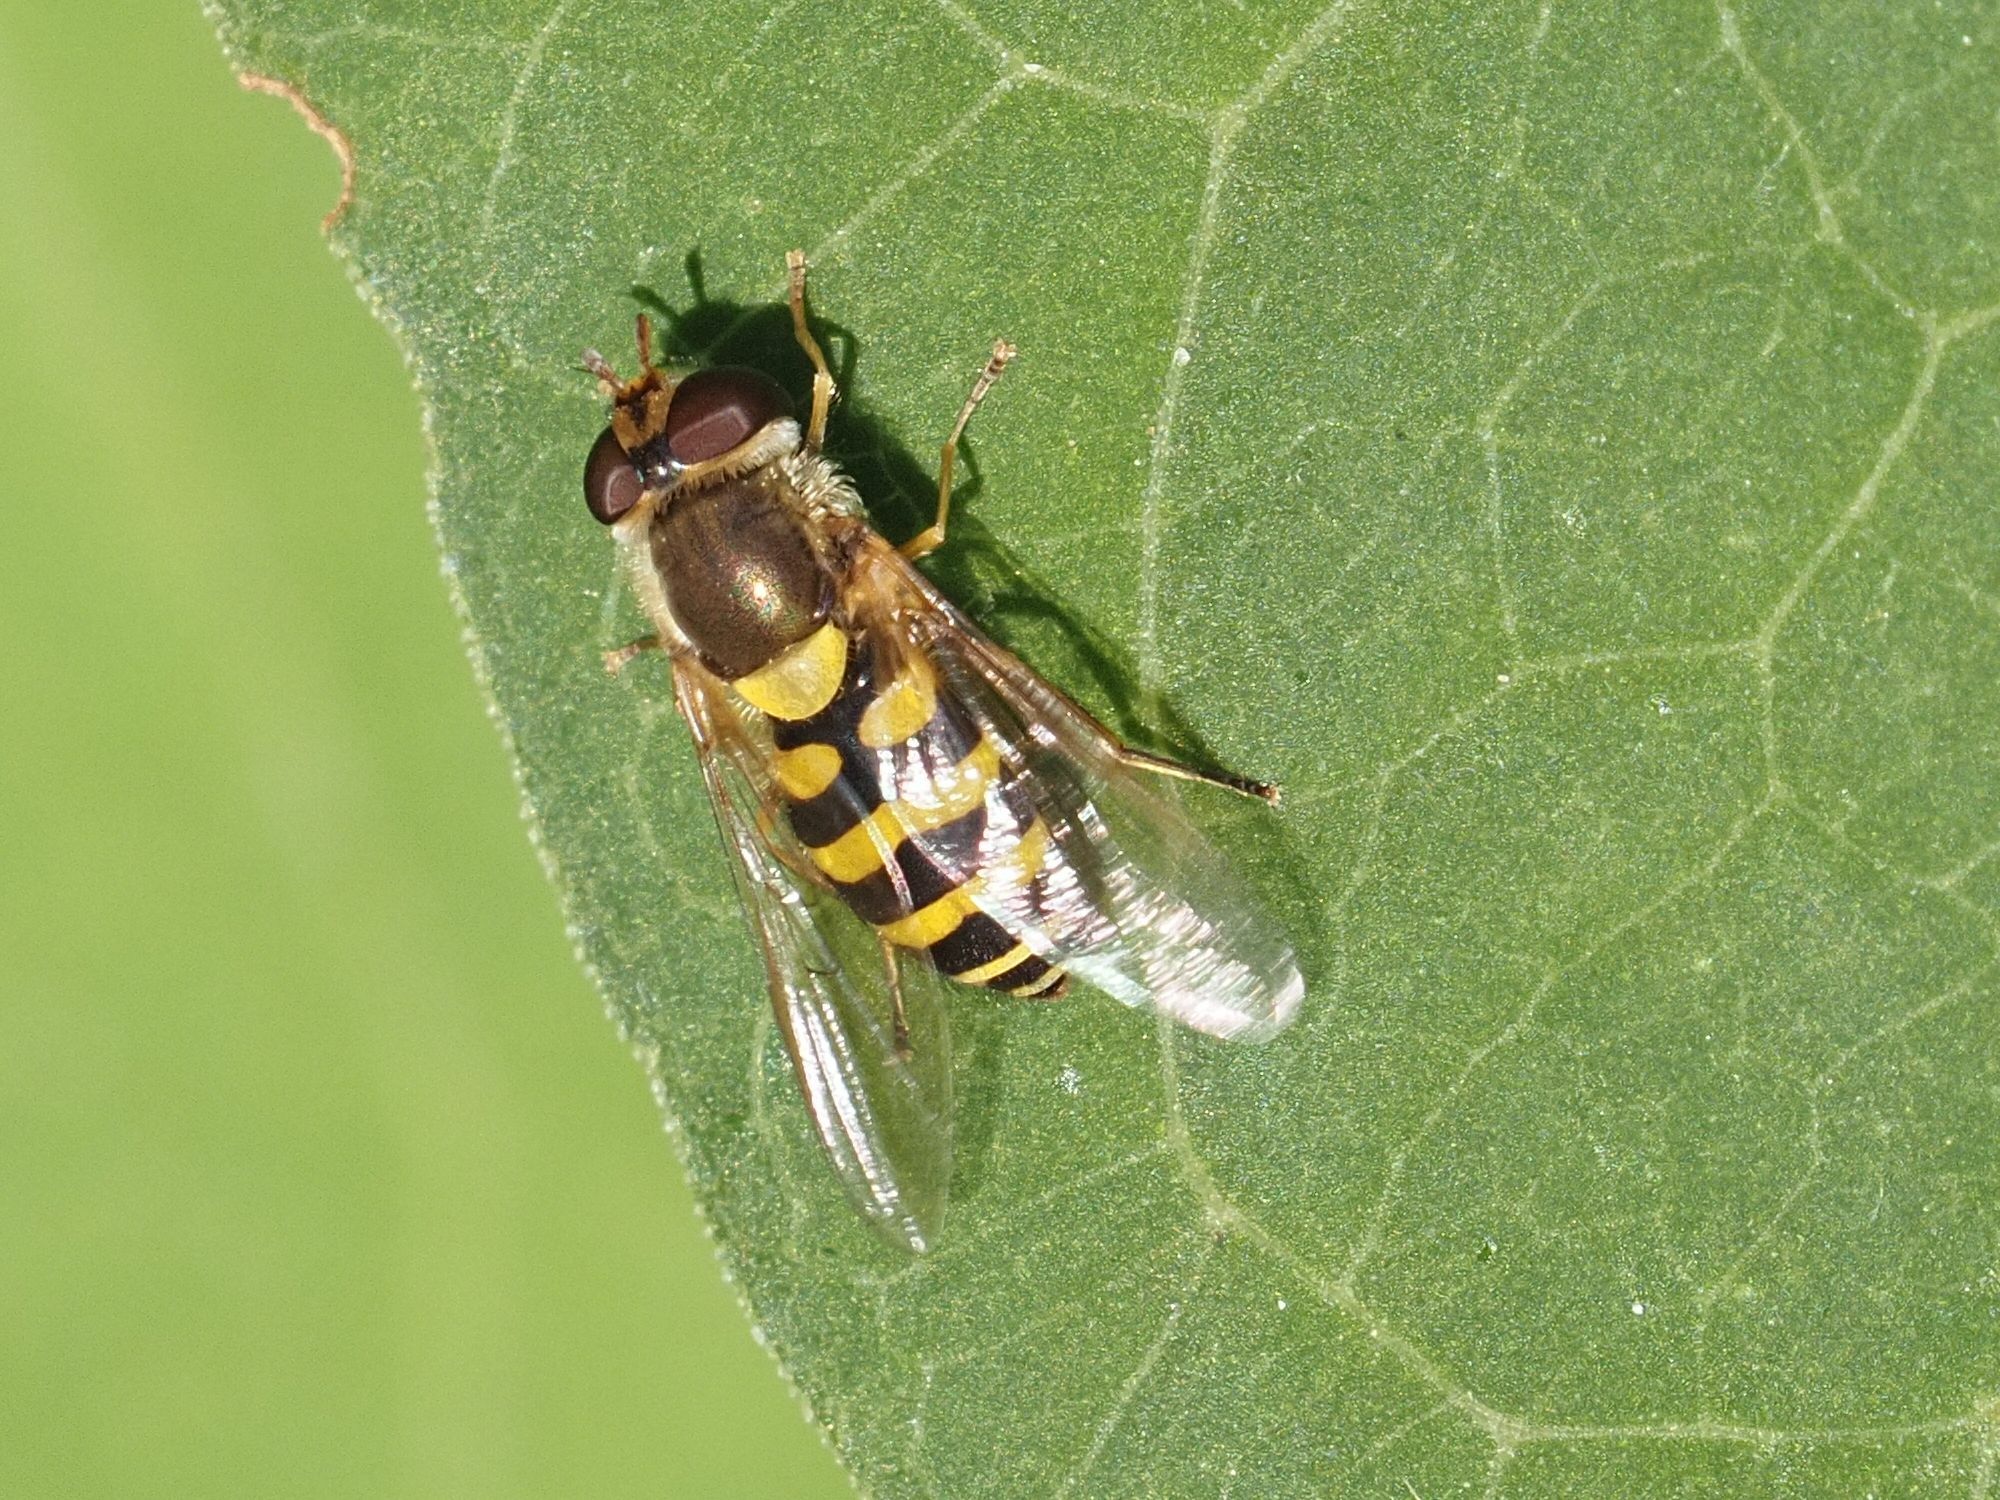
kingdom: Animalia
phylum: Arthropoda
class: Insecta
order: Diptera
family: Syrphidae
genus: Syrphus
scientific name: Syrphus
